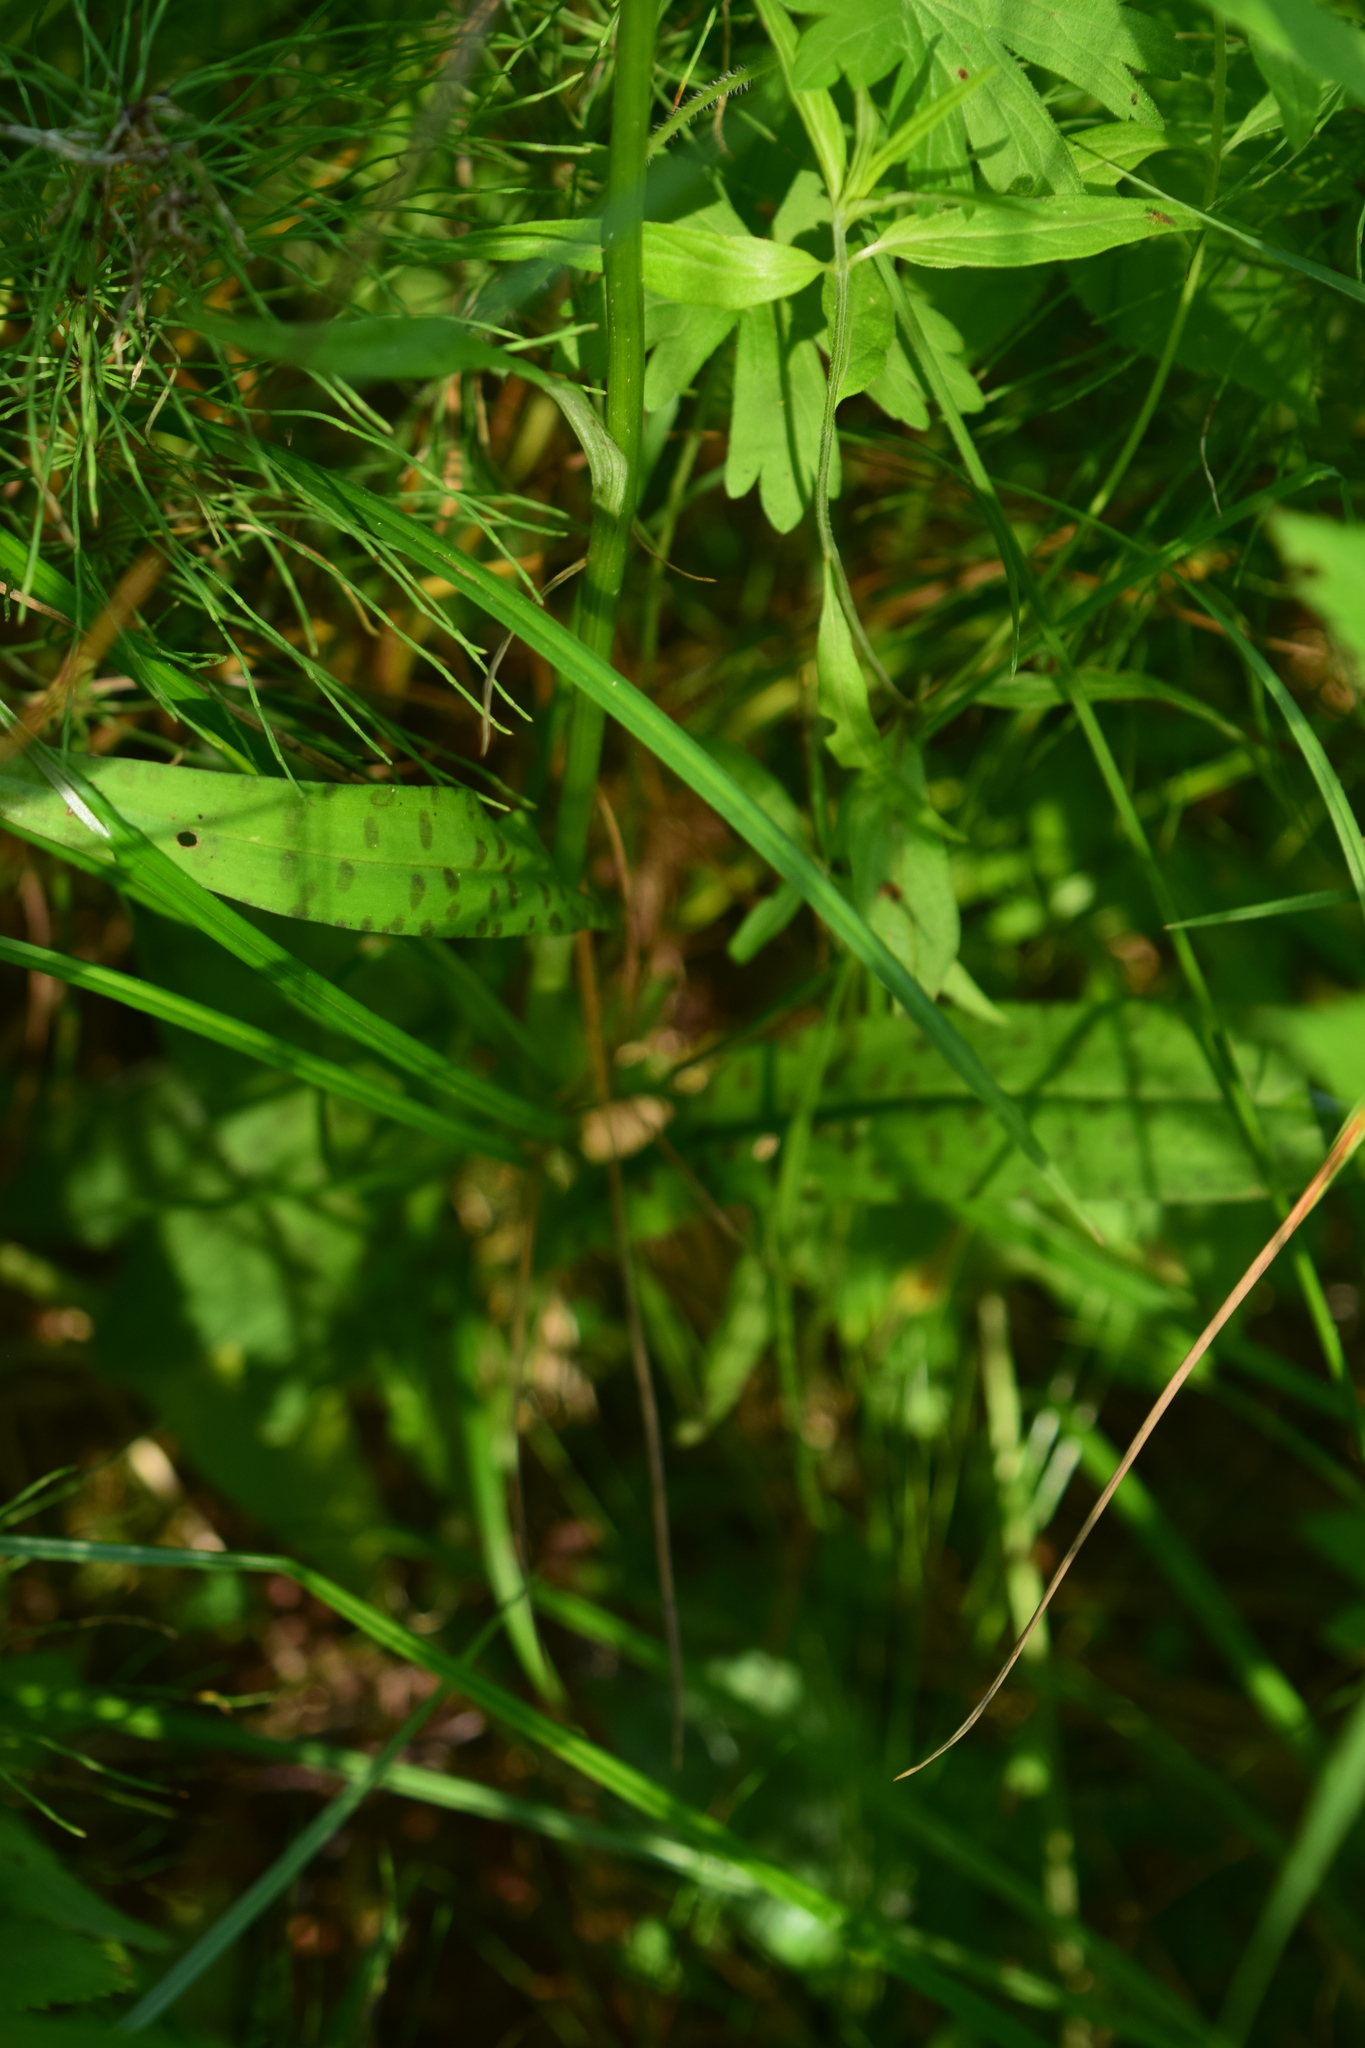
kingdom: Plantae
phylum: Tracheophyta
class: Liliopsida
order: Asparagales
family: Orchidaceae
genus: Dactylorhiza
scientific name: Dactylorhiza maculata
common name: Heath spotted-orchid
